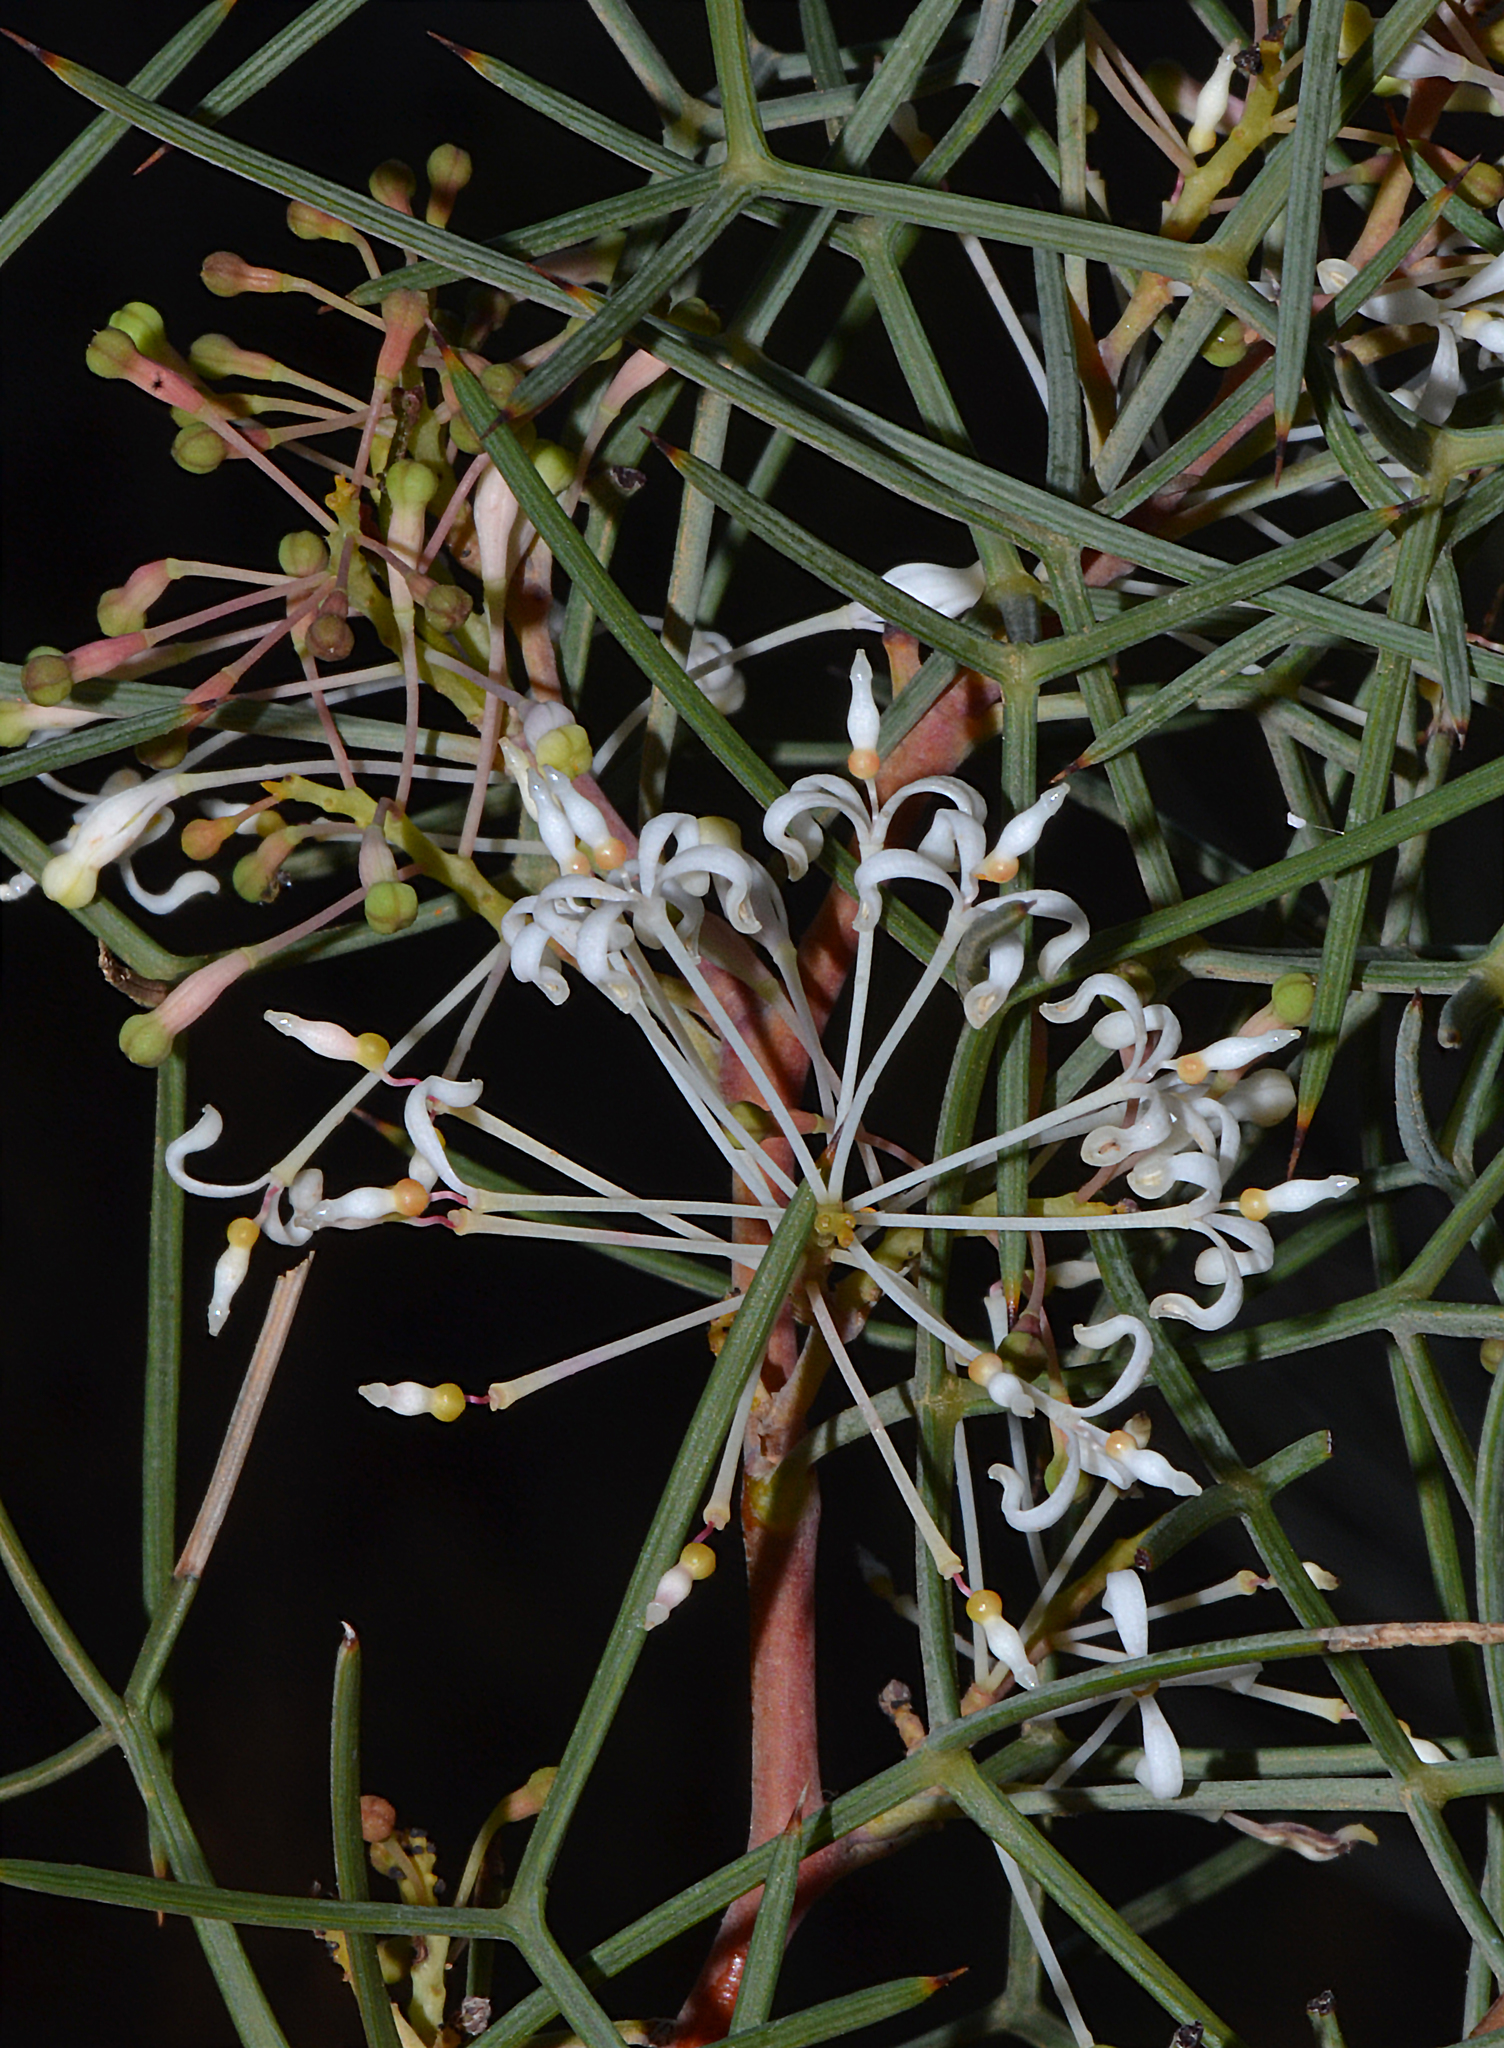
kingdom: Plantae
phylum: Tracheophyta
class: Magnoliopsida
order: Proteales
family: Proteaceae
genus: Grevillea
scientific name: Grevillea levis
